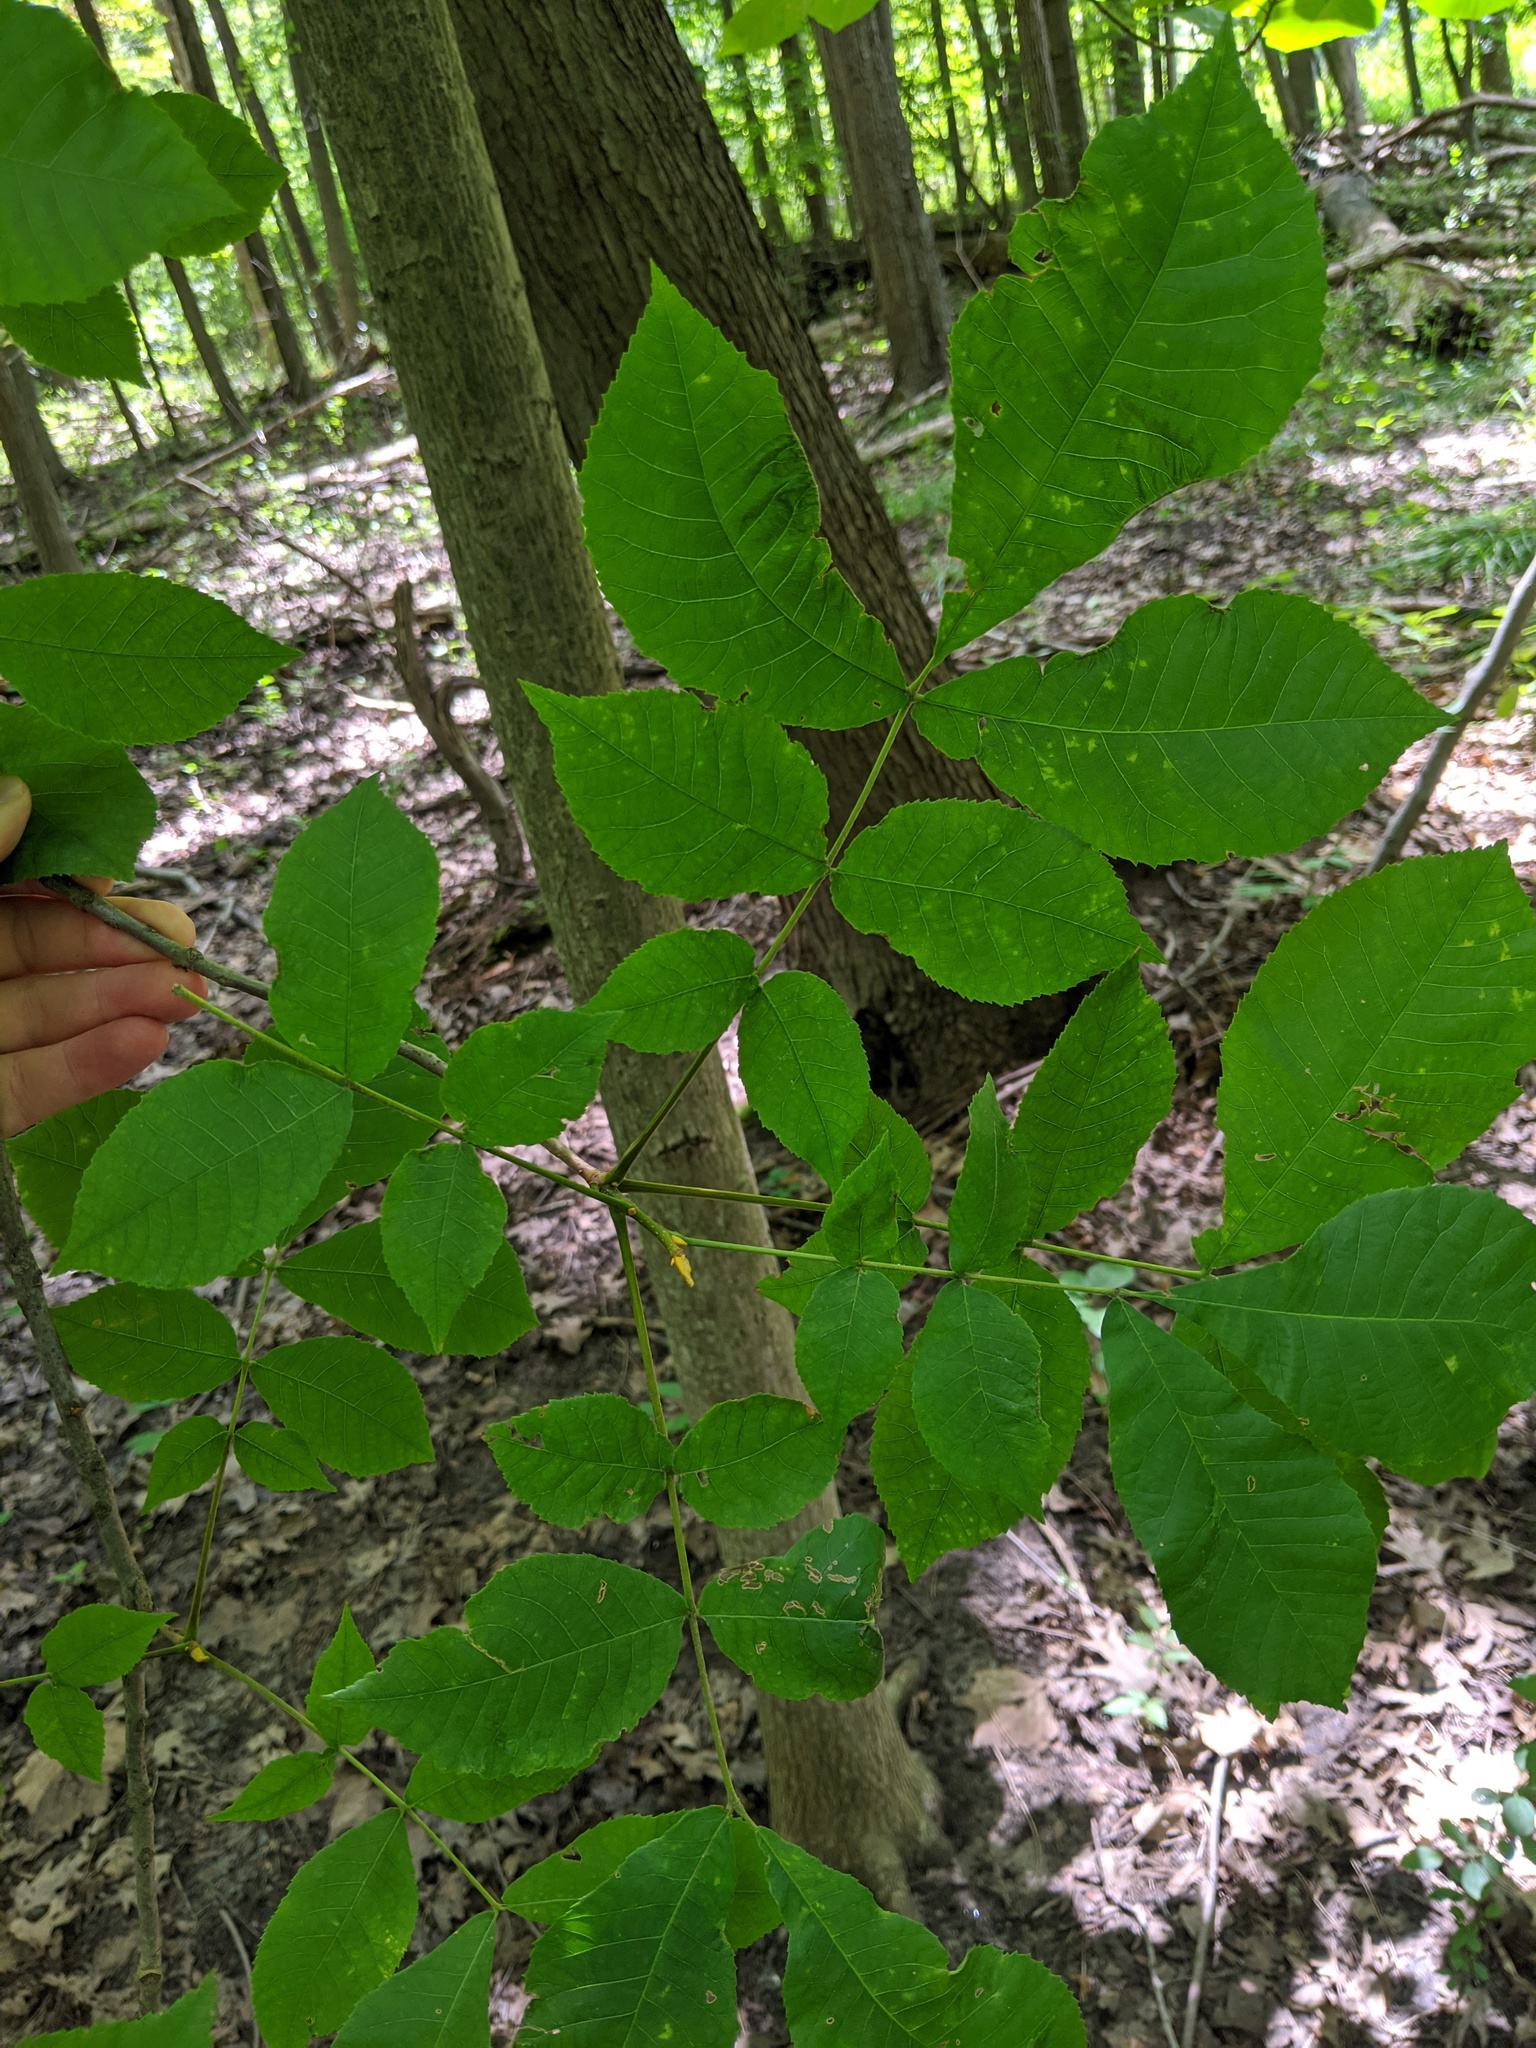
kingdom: Plantae
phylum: Tracheophyta
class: Magnoliopsida
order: Fagales
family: Juglandaceae
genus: Carya
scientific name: Carya cordiformis
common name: Bitternut hickory
